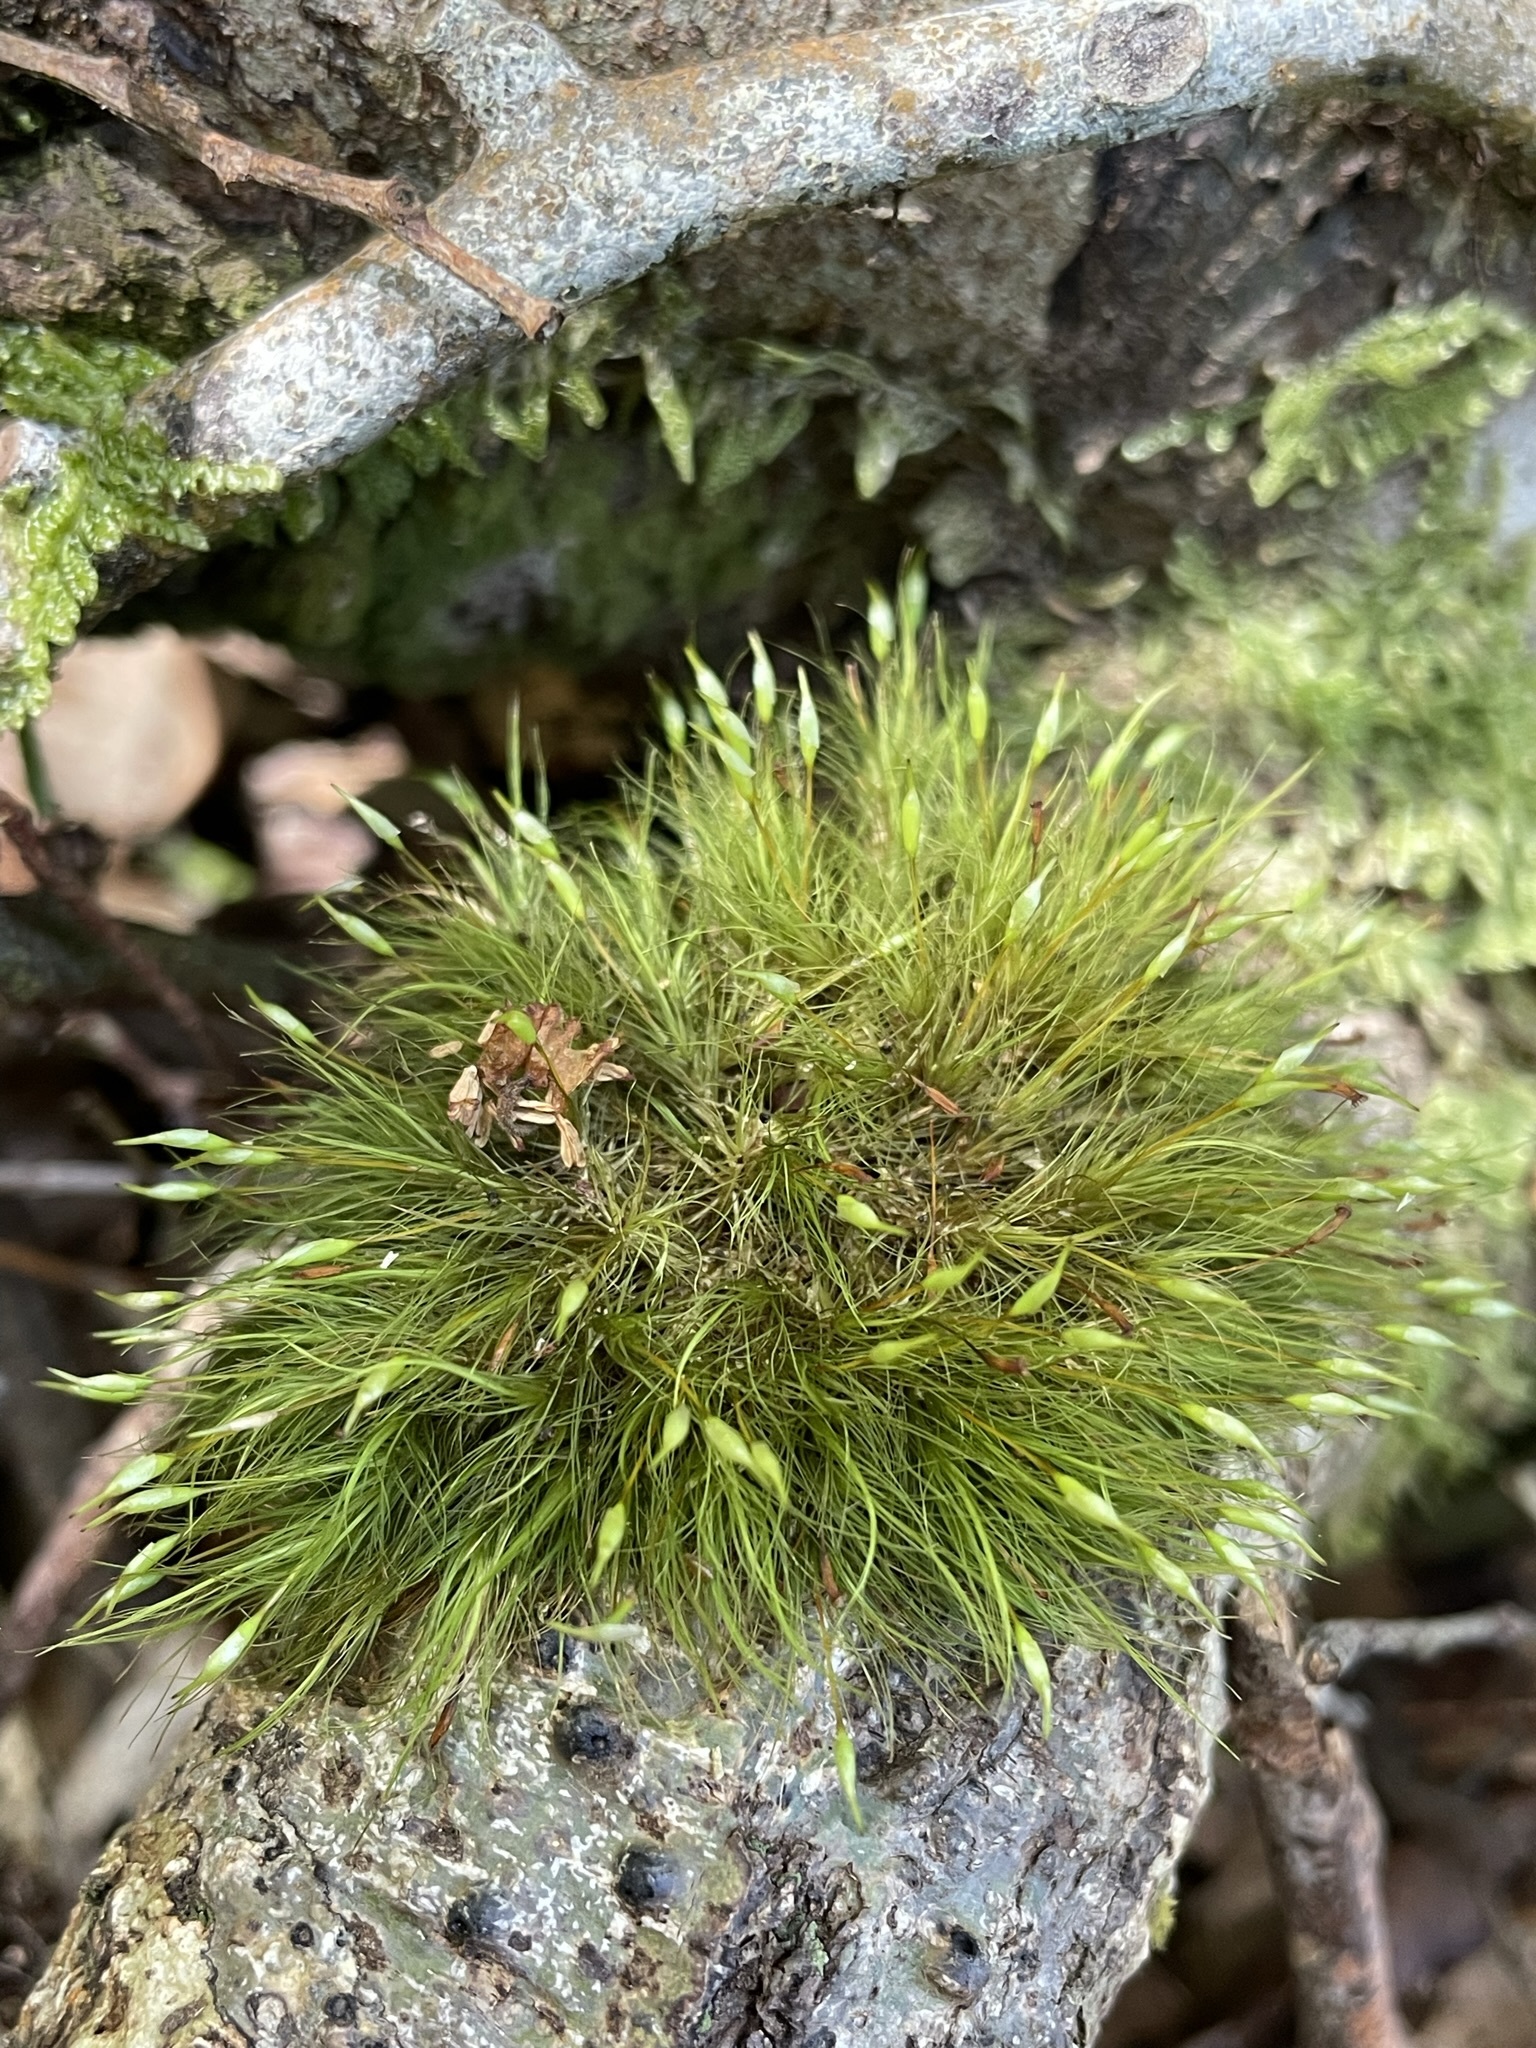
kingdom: Plantae
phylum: Bryophyta
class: Bryopsida
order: Dicranales
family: Dicranaceae
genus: Dicranoloma
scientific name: Dicranoloma menziesii
